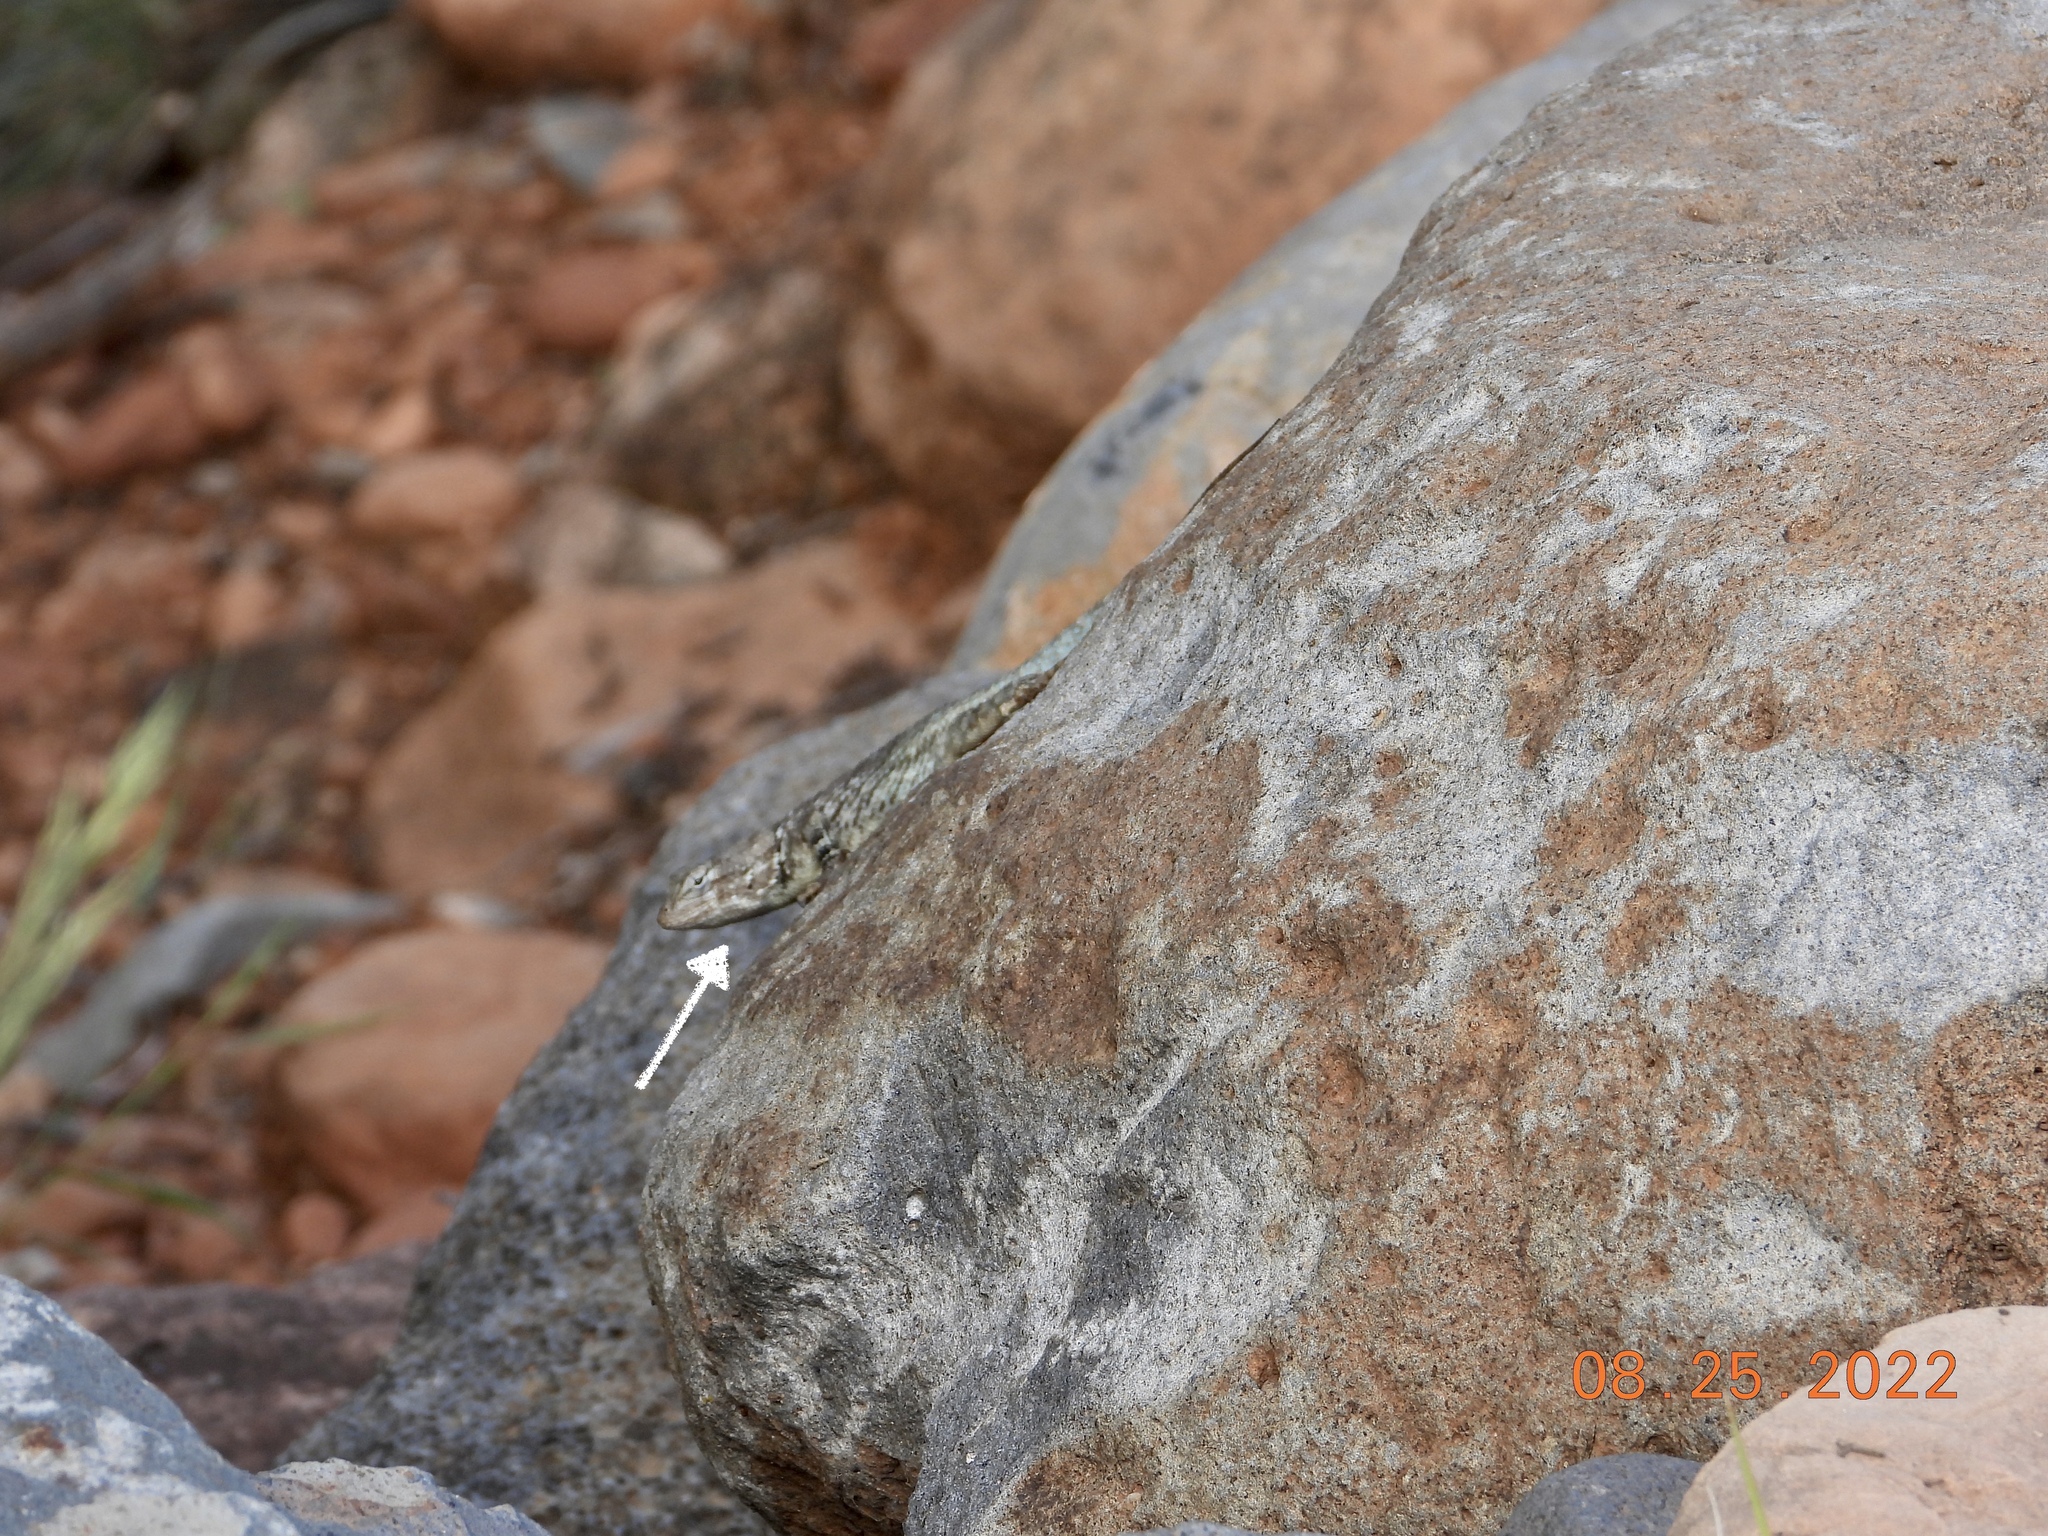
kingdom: Animalia
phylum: Chordata
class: Squamata
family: Phrynosomatidae
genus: Sceloporus
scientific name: Sceloporus clarkii
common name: Clark's spiny lizard
